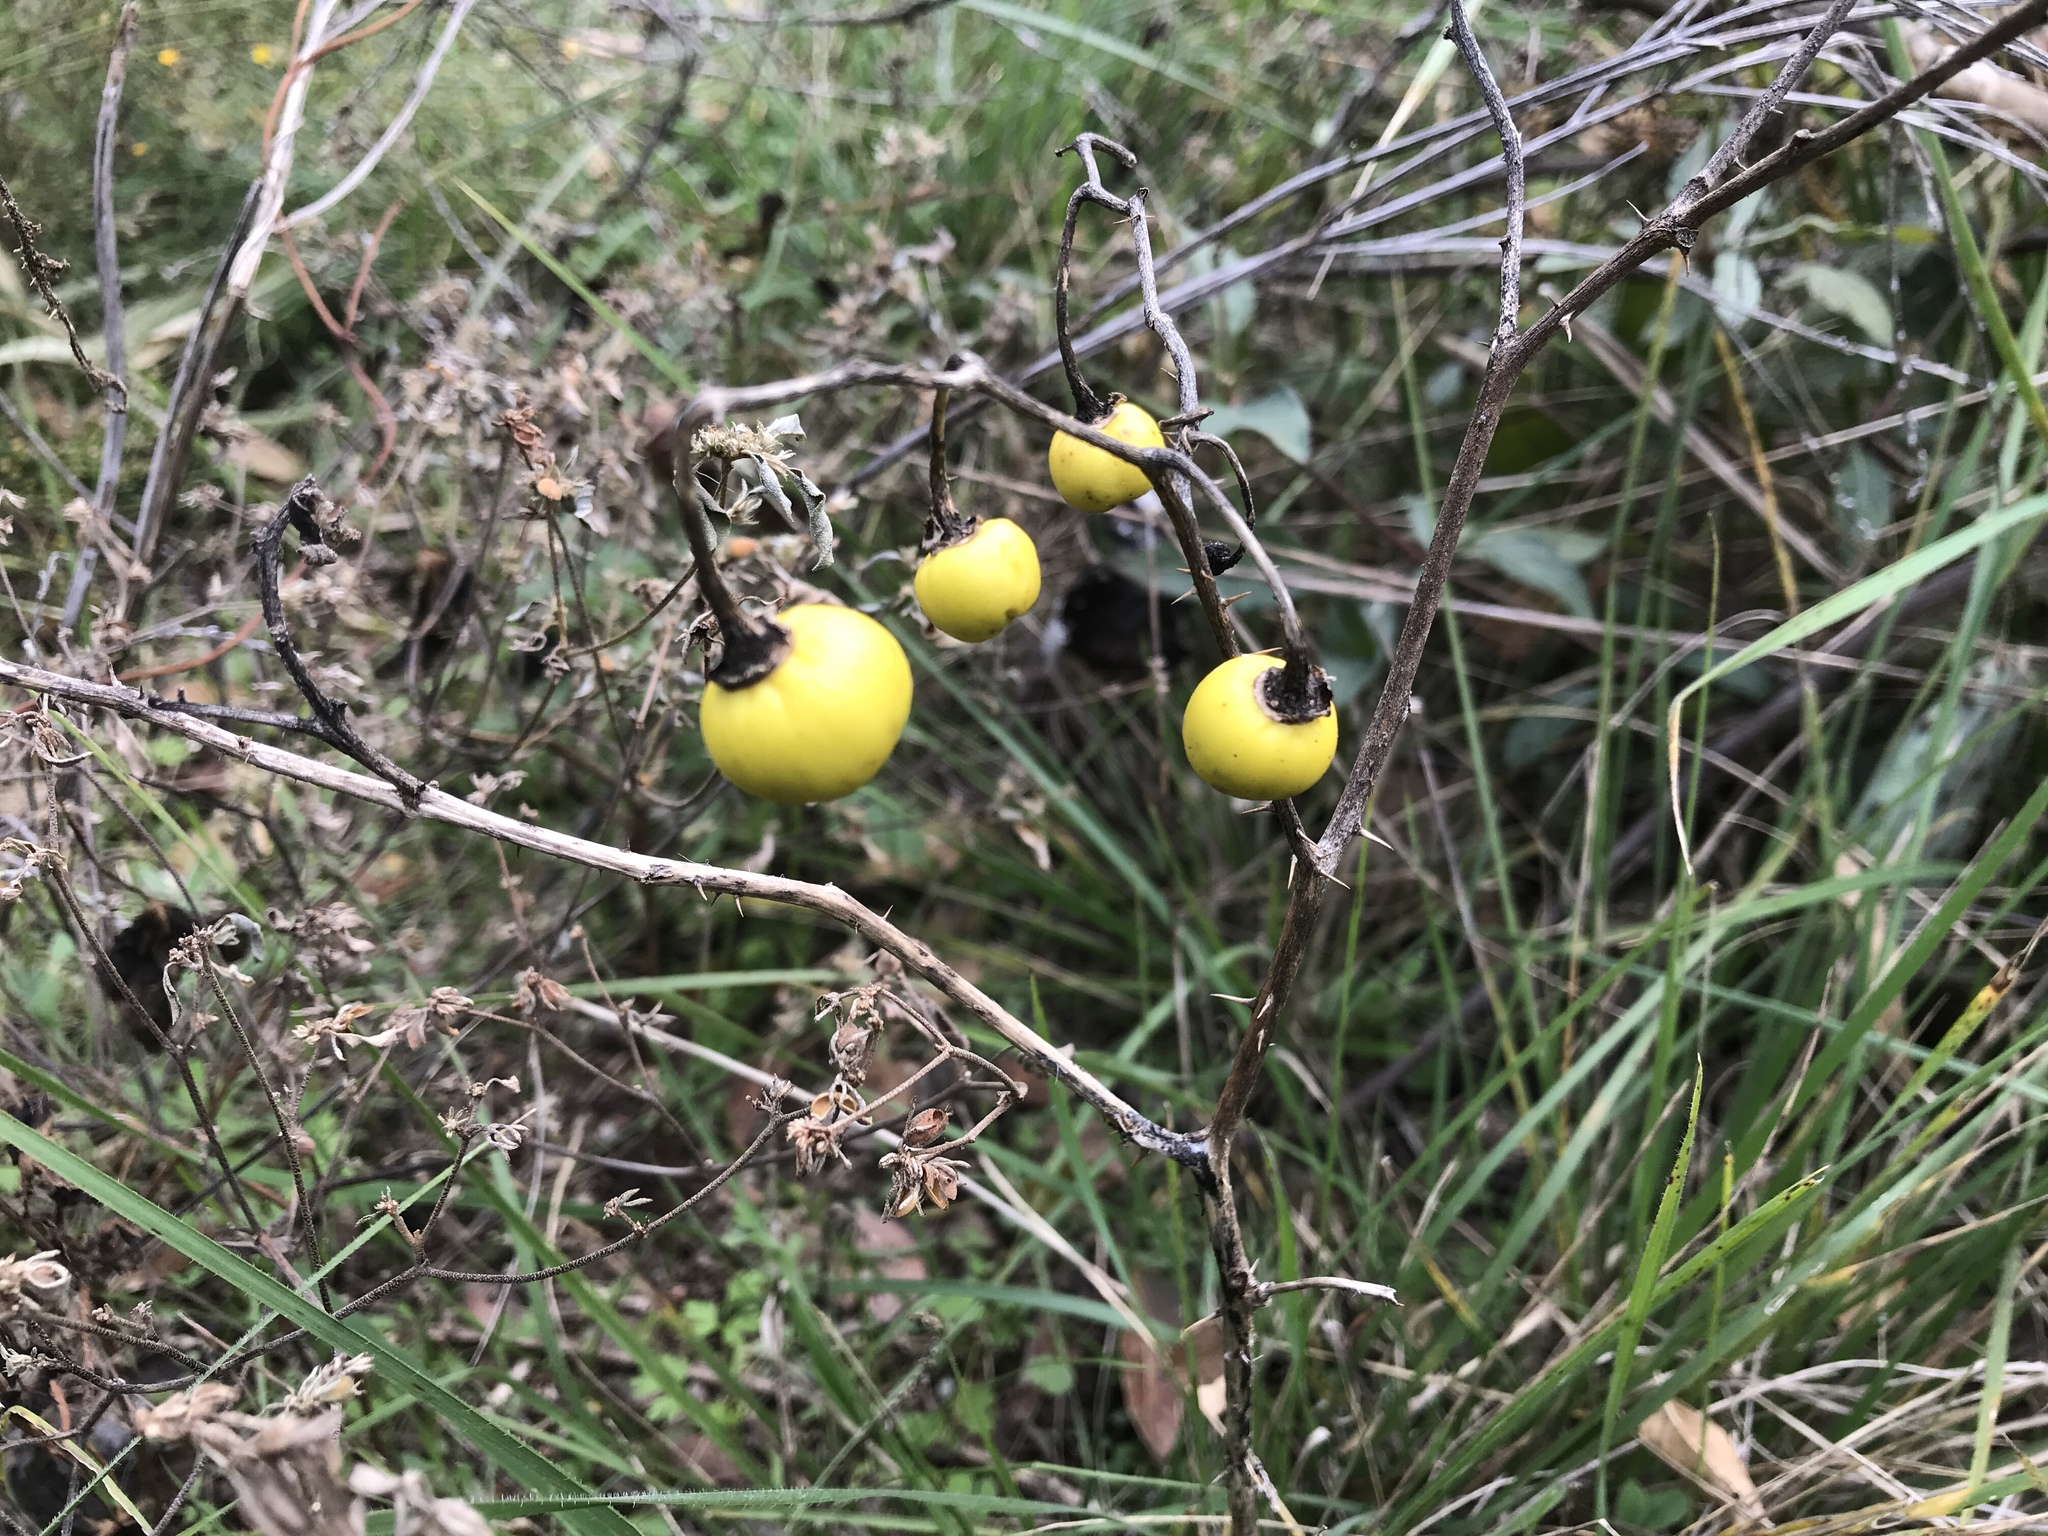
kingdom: Plantae
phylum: Tracheophyta
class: Magnoliopsida
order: Solanales
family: Solanaceae
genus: Solanum
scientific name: Solanum elaeagnifolium
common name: Silverleaf nightshade
